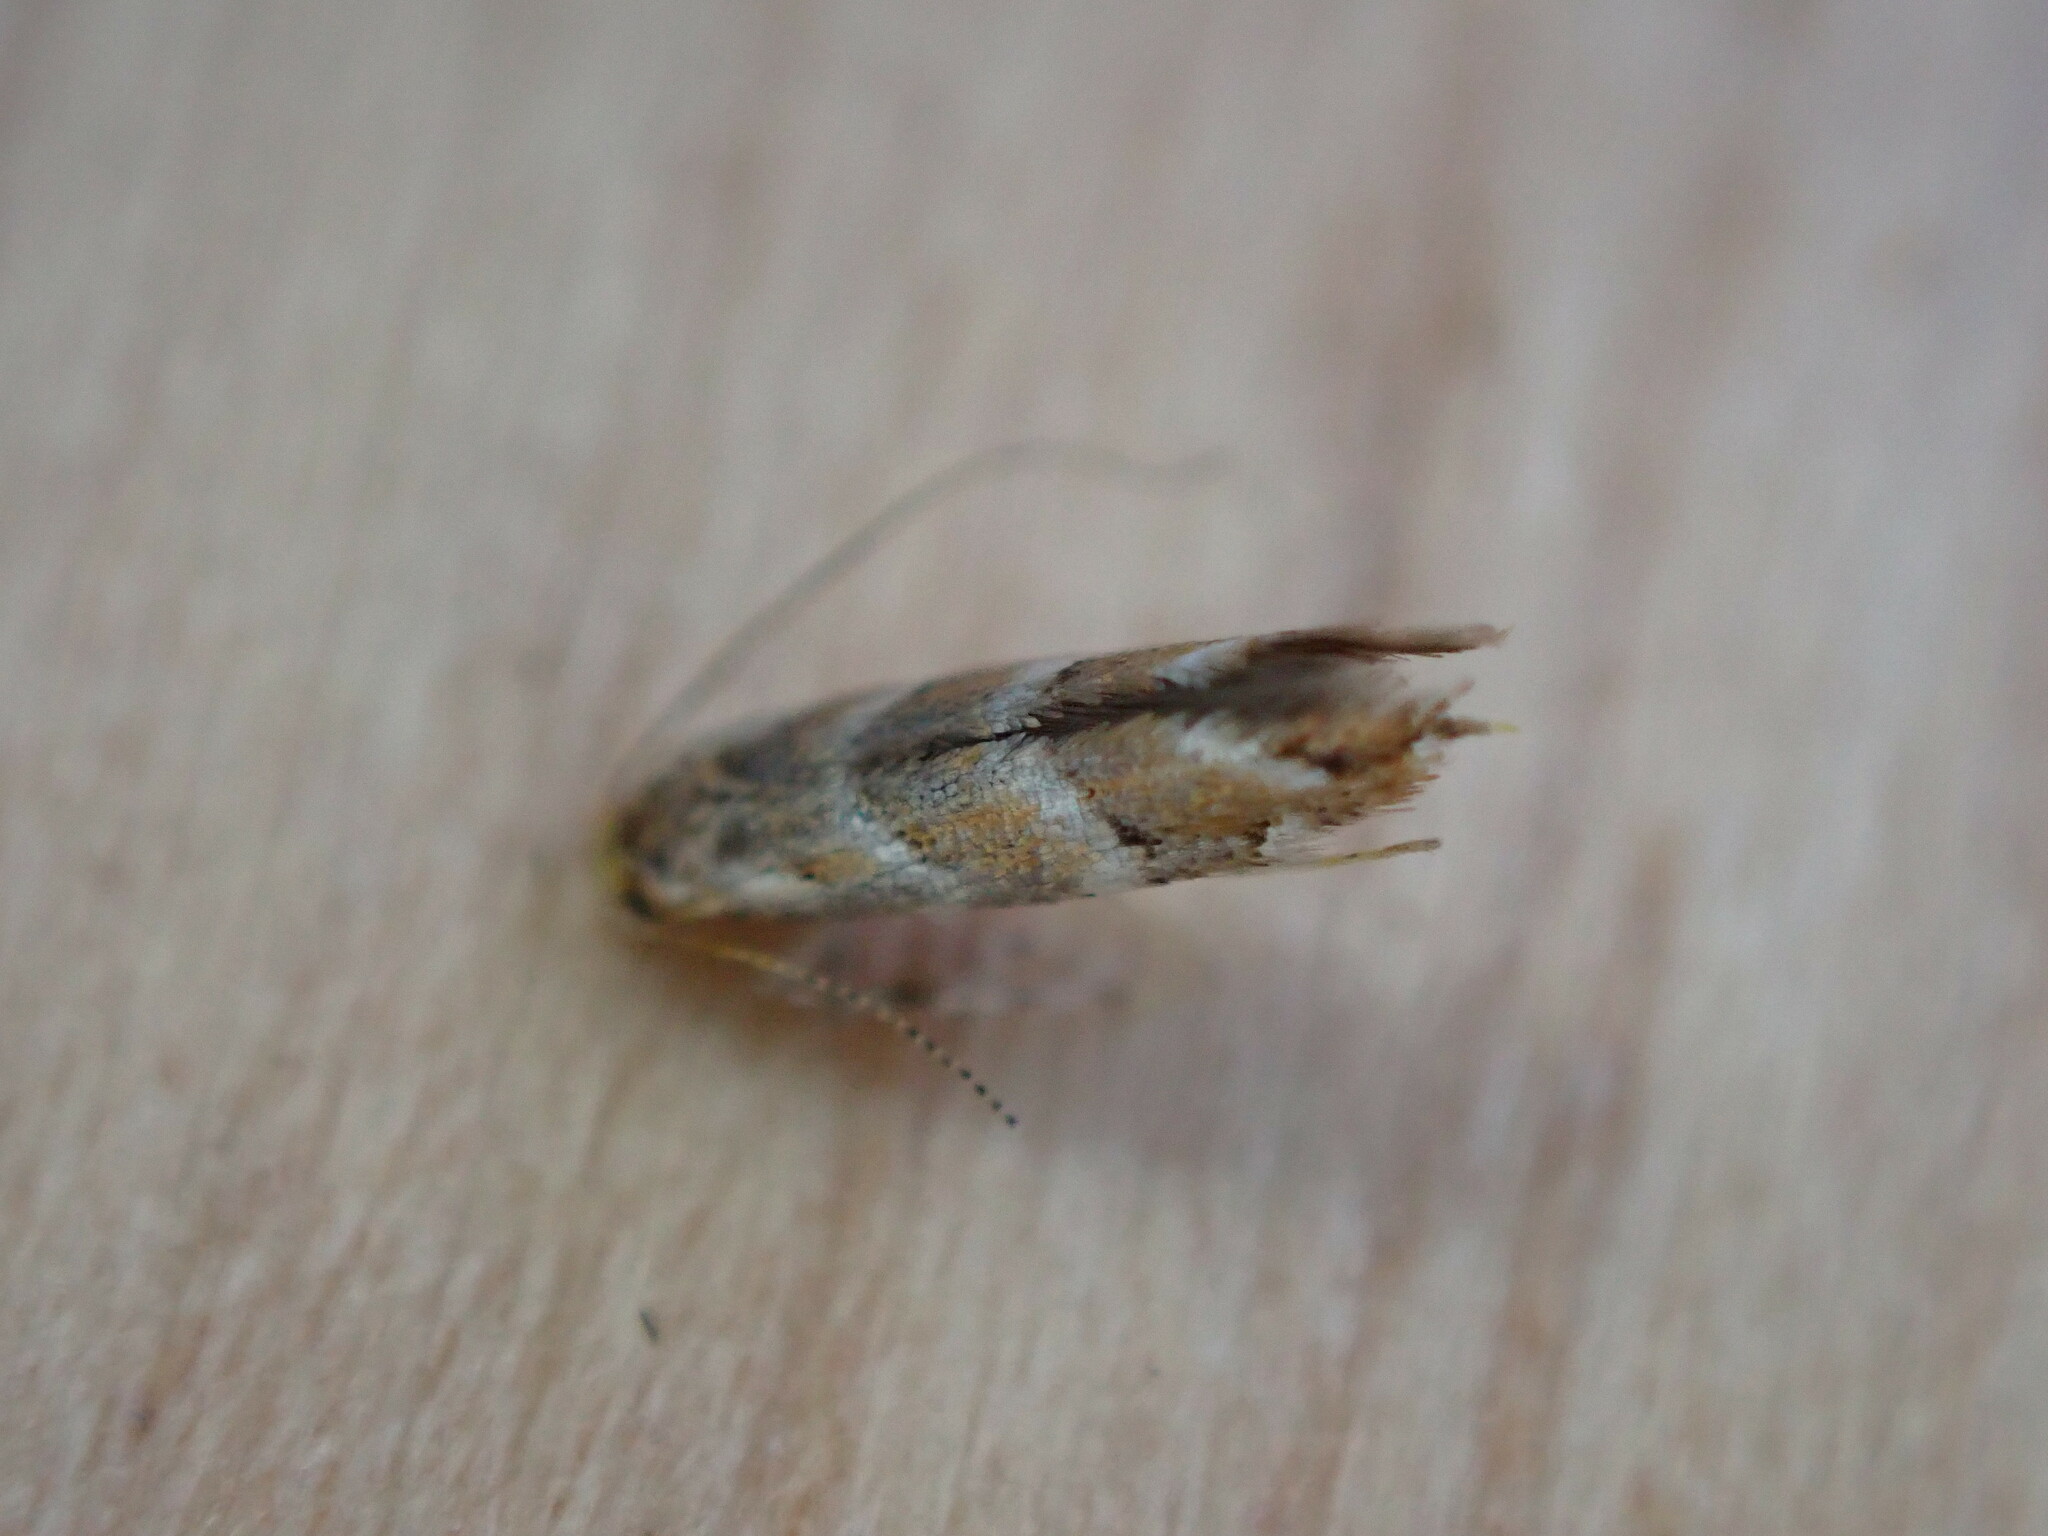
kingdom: Animalia
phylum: Arthropoda
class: Insecta
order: Lepidoptera
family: Gracillariidae
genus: Cameraria
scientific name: Cameraria ohridella
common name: Horse-chestnut leaf-miner
